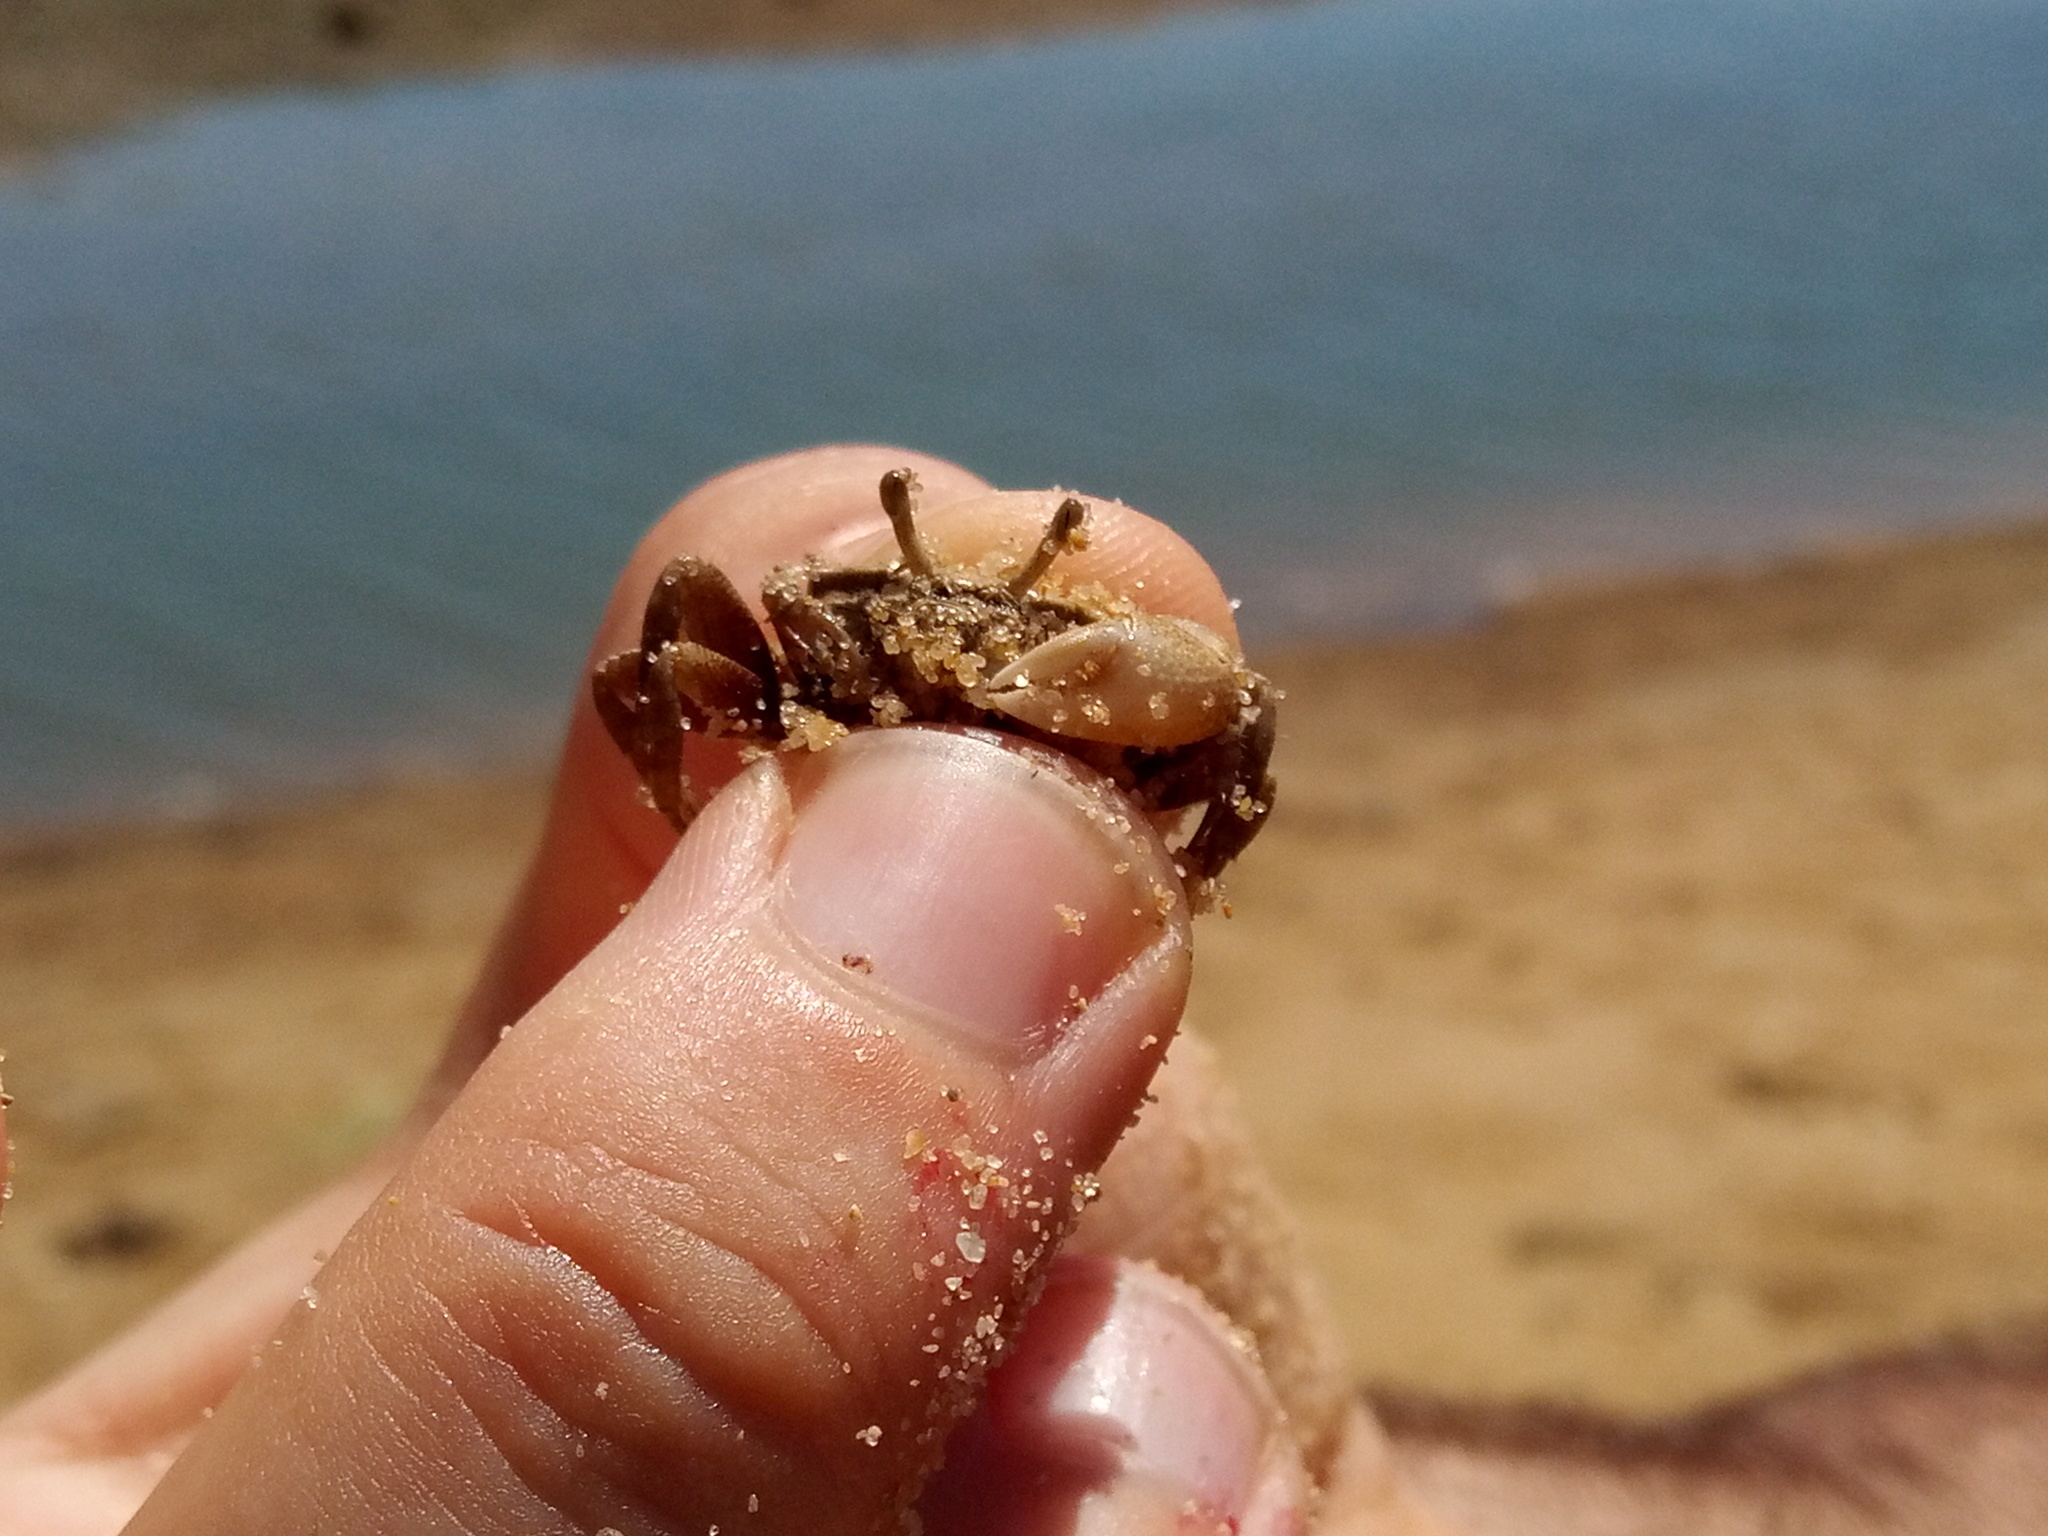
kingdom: Animalia
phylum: Arthropoda
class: Malacostraca
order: Decapoda
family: Ocypodidae
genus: Afruca
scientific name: Afruca tangeri
